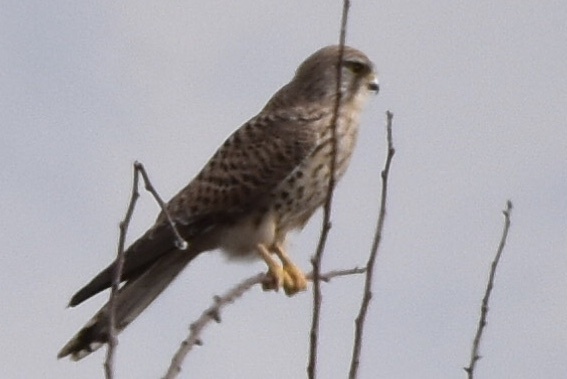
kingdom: Animalia
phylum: Chordata
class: Aves
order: Falconiformes
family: Falconidae
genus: Falco
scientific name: Falco tinnunculus
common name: Common kestrel
